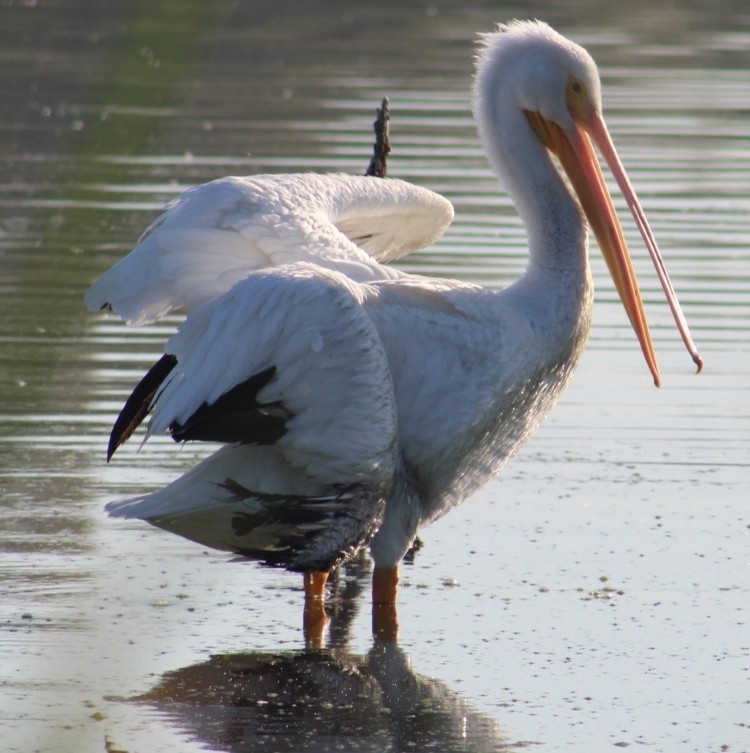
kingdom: Animalia
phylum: Chordata
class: Aves
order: Pelecaniformes
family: Pelecanidae
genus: Pelecanus
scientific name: Pelecanus erythrorhynchos
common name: American white pelican
